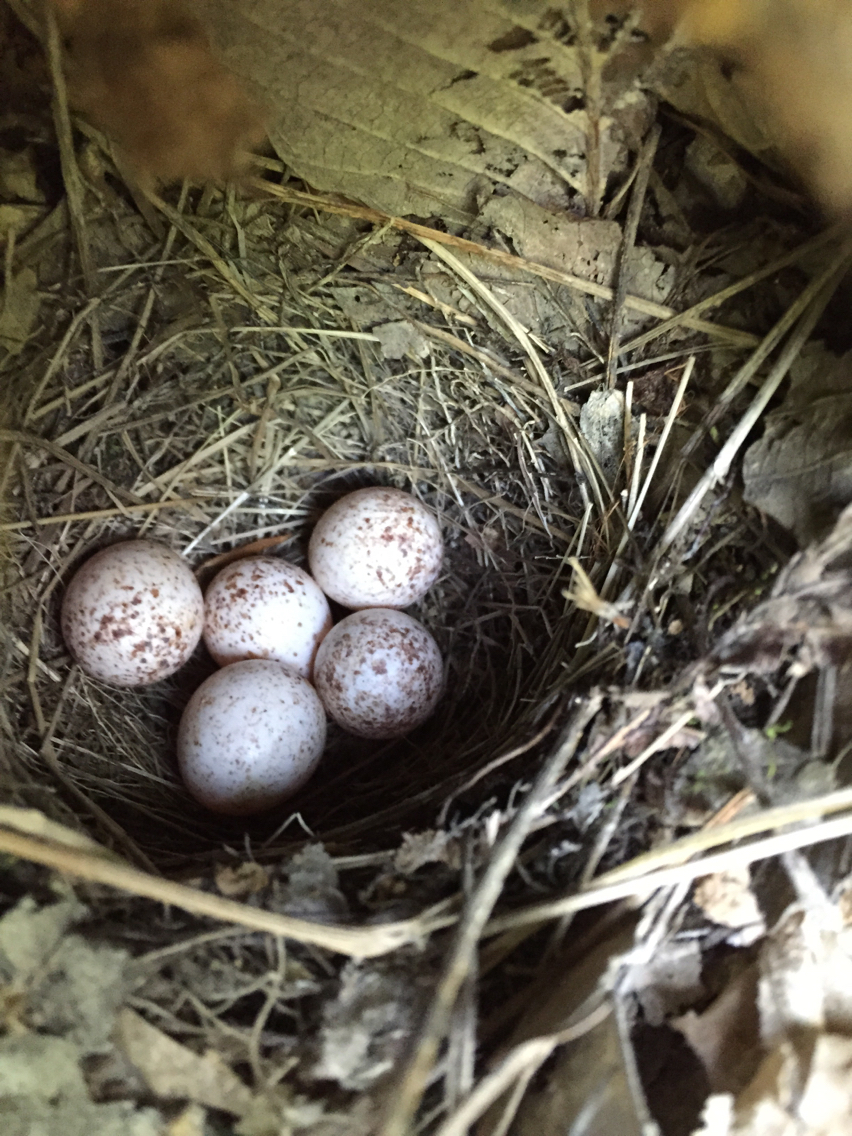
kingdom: Animalia
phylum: Chordata
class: Aves
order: Passeriformes
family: Parulidae
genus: Parkesia
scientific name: Parkesia motacilla
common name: Louisiana waterthrush
